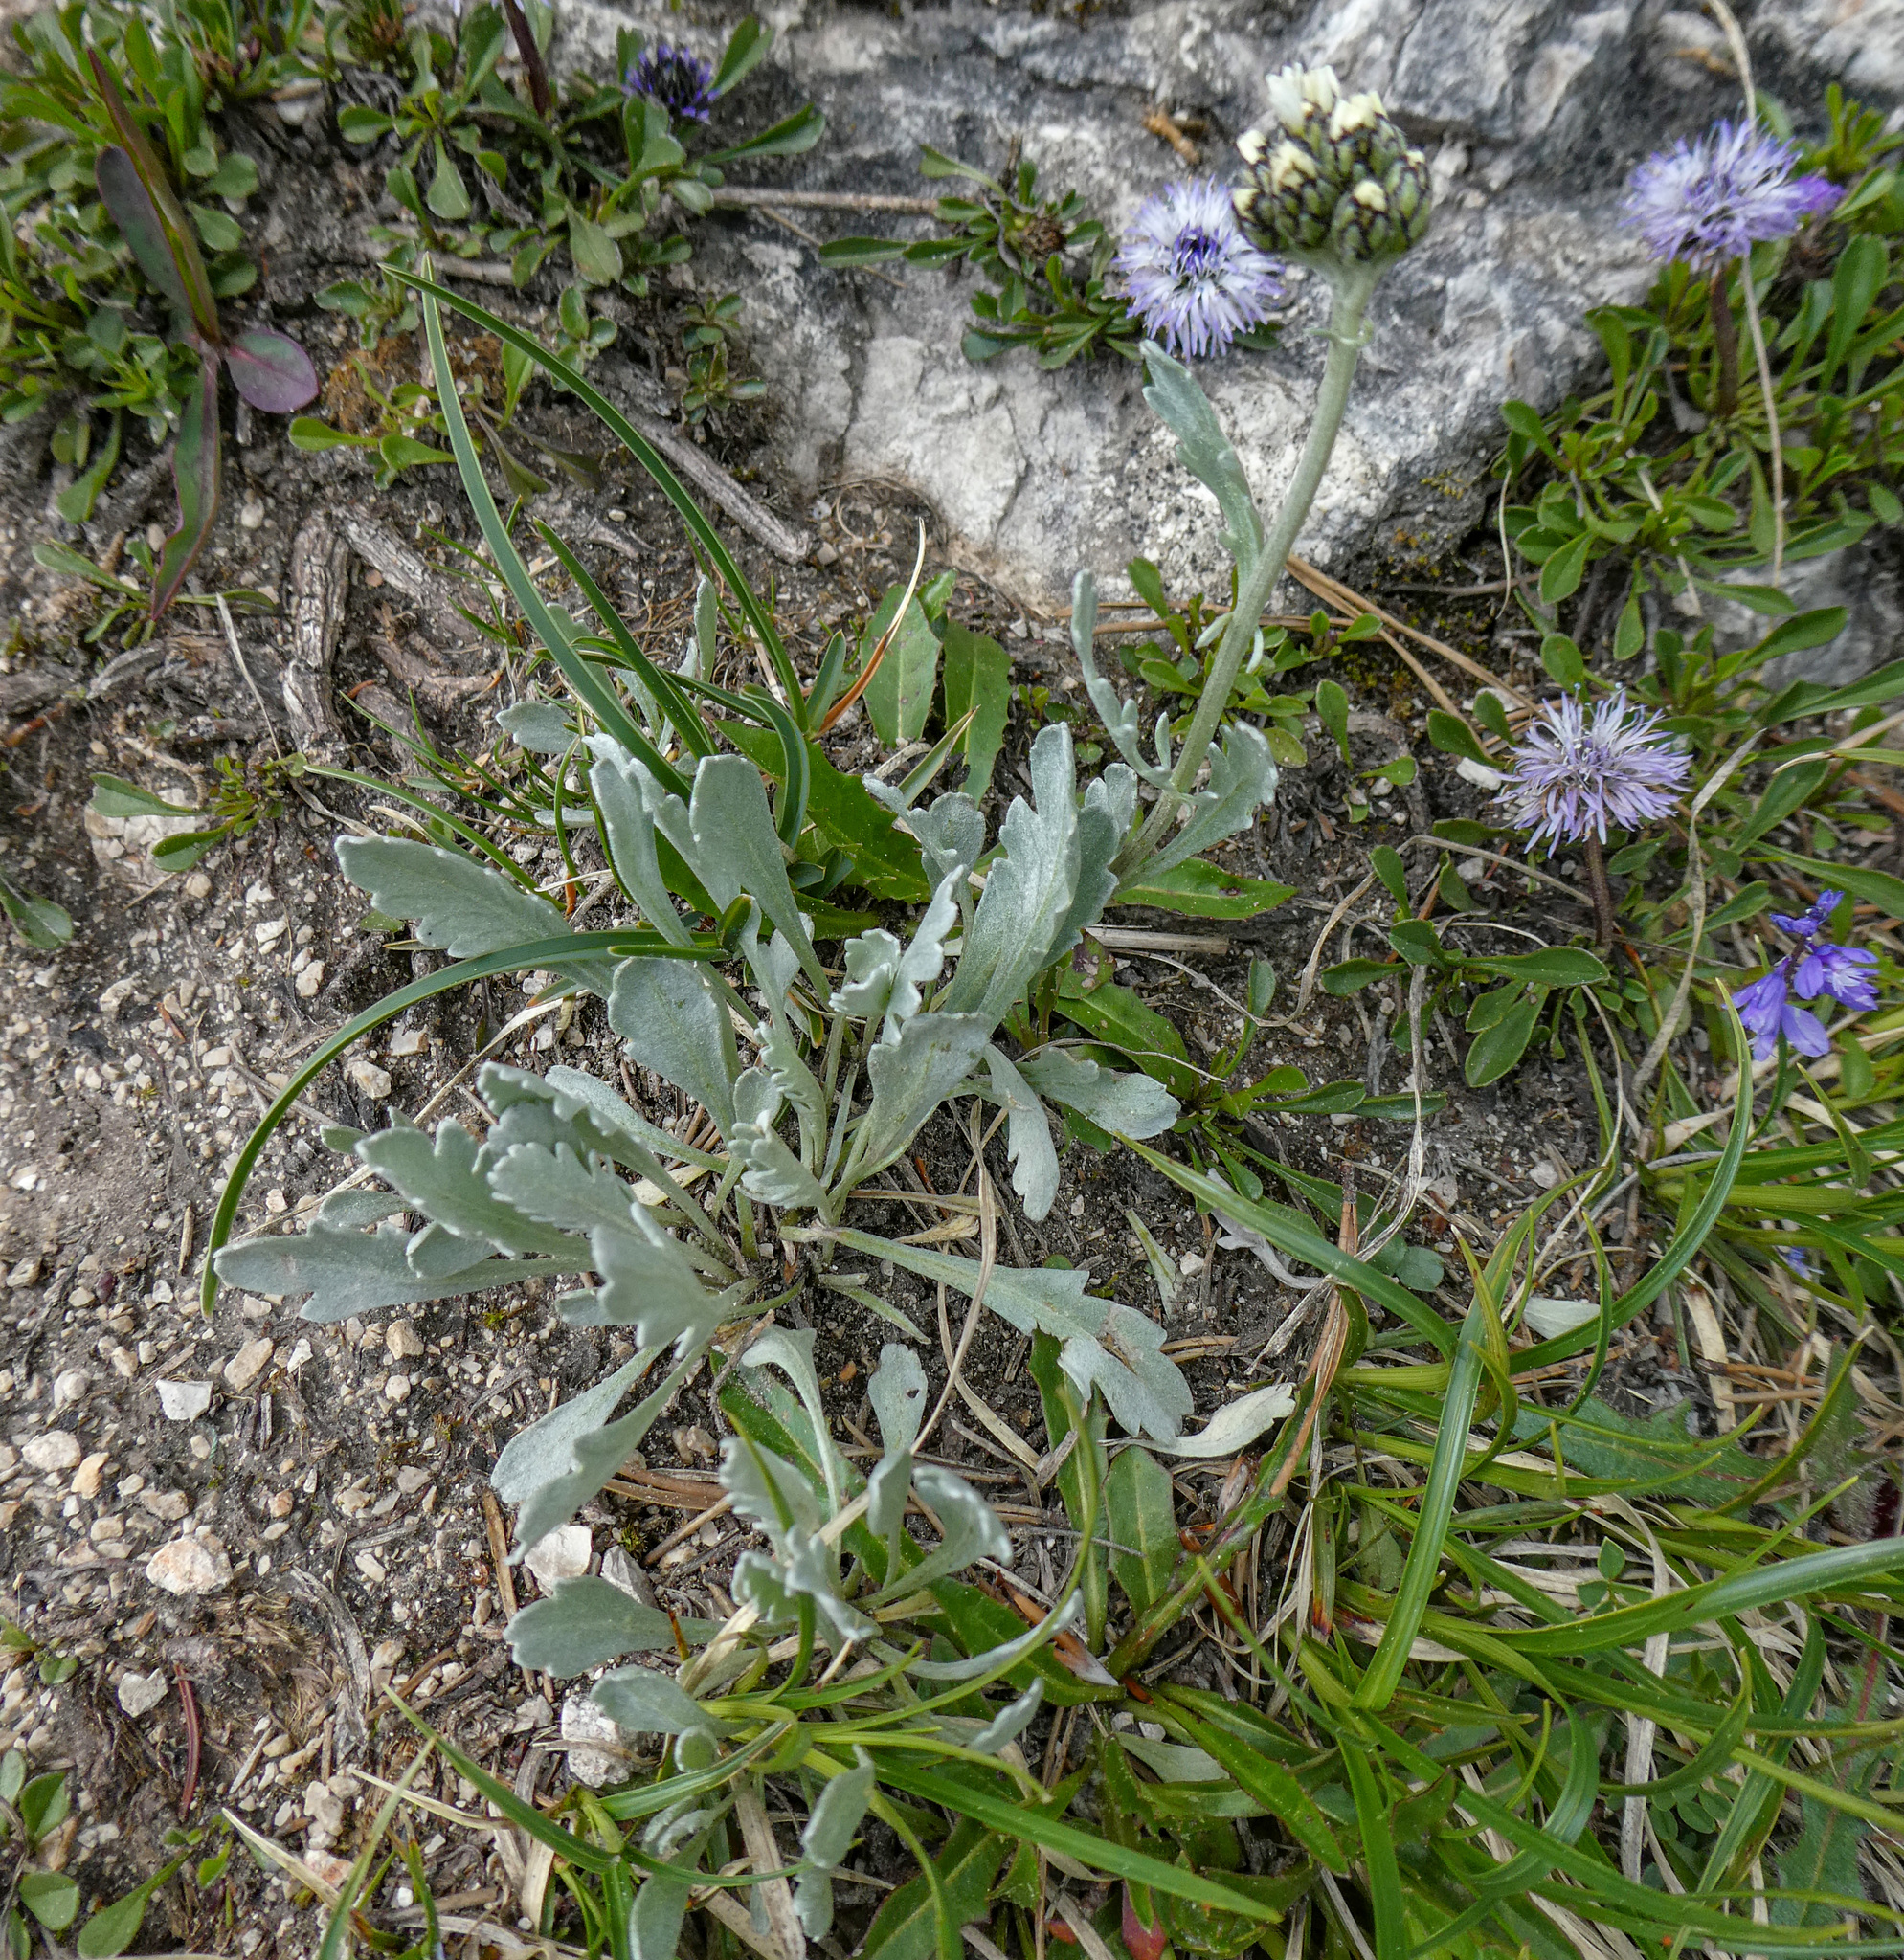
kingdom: Plantae
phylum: Tracheophyta
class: Magnoliopsida
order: Asterales
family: Asteraceae
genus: Achillea
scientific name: Achillea clavennae
